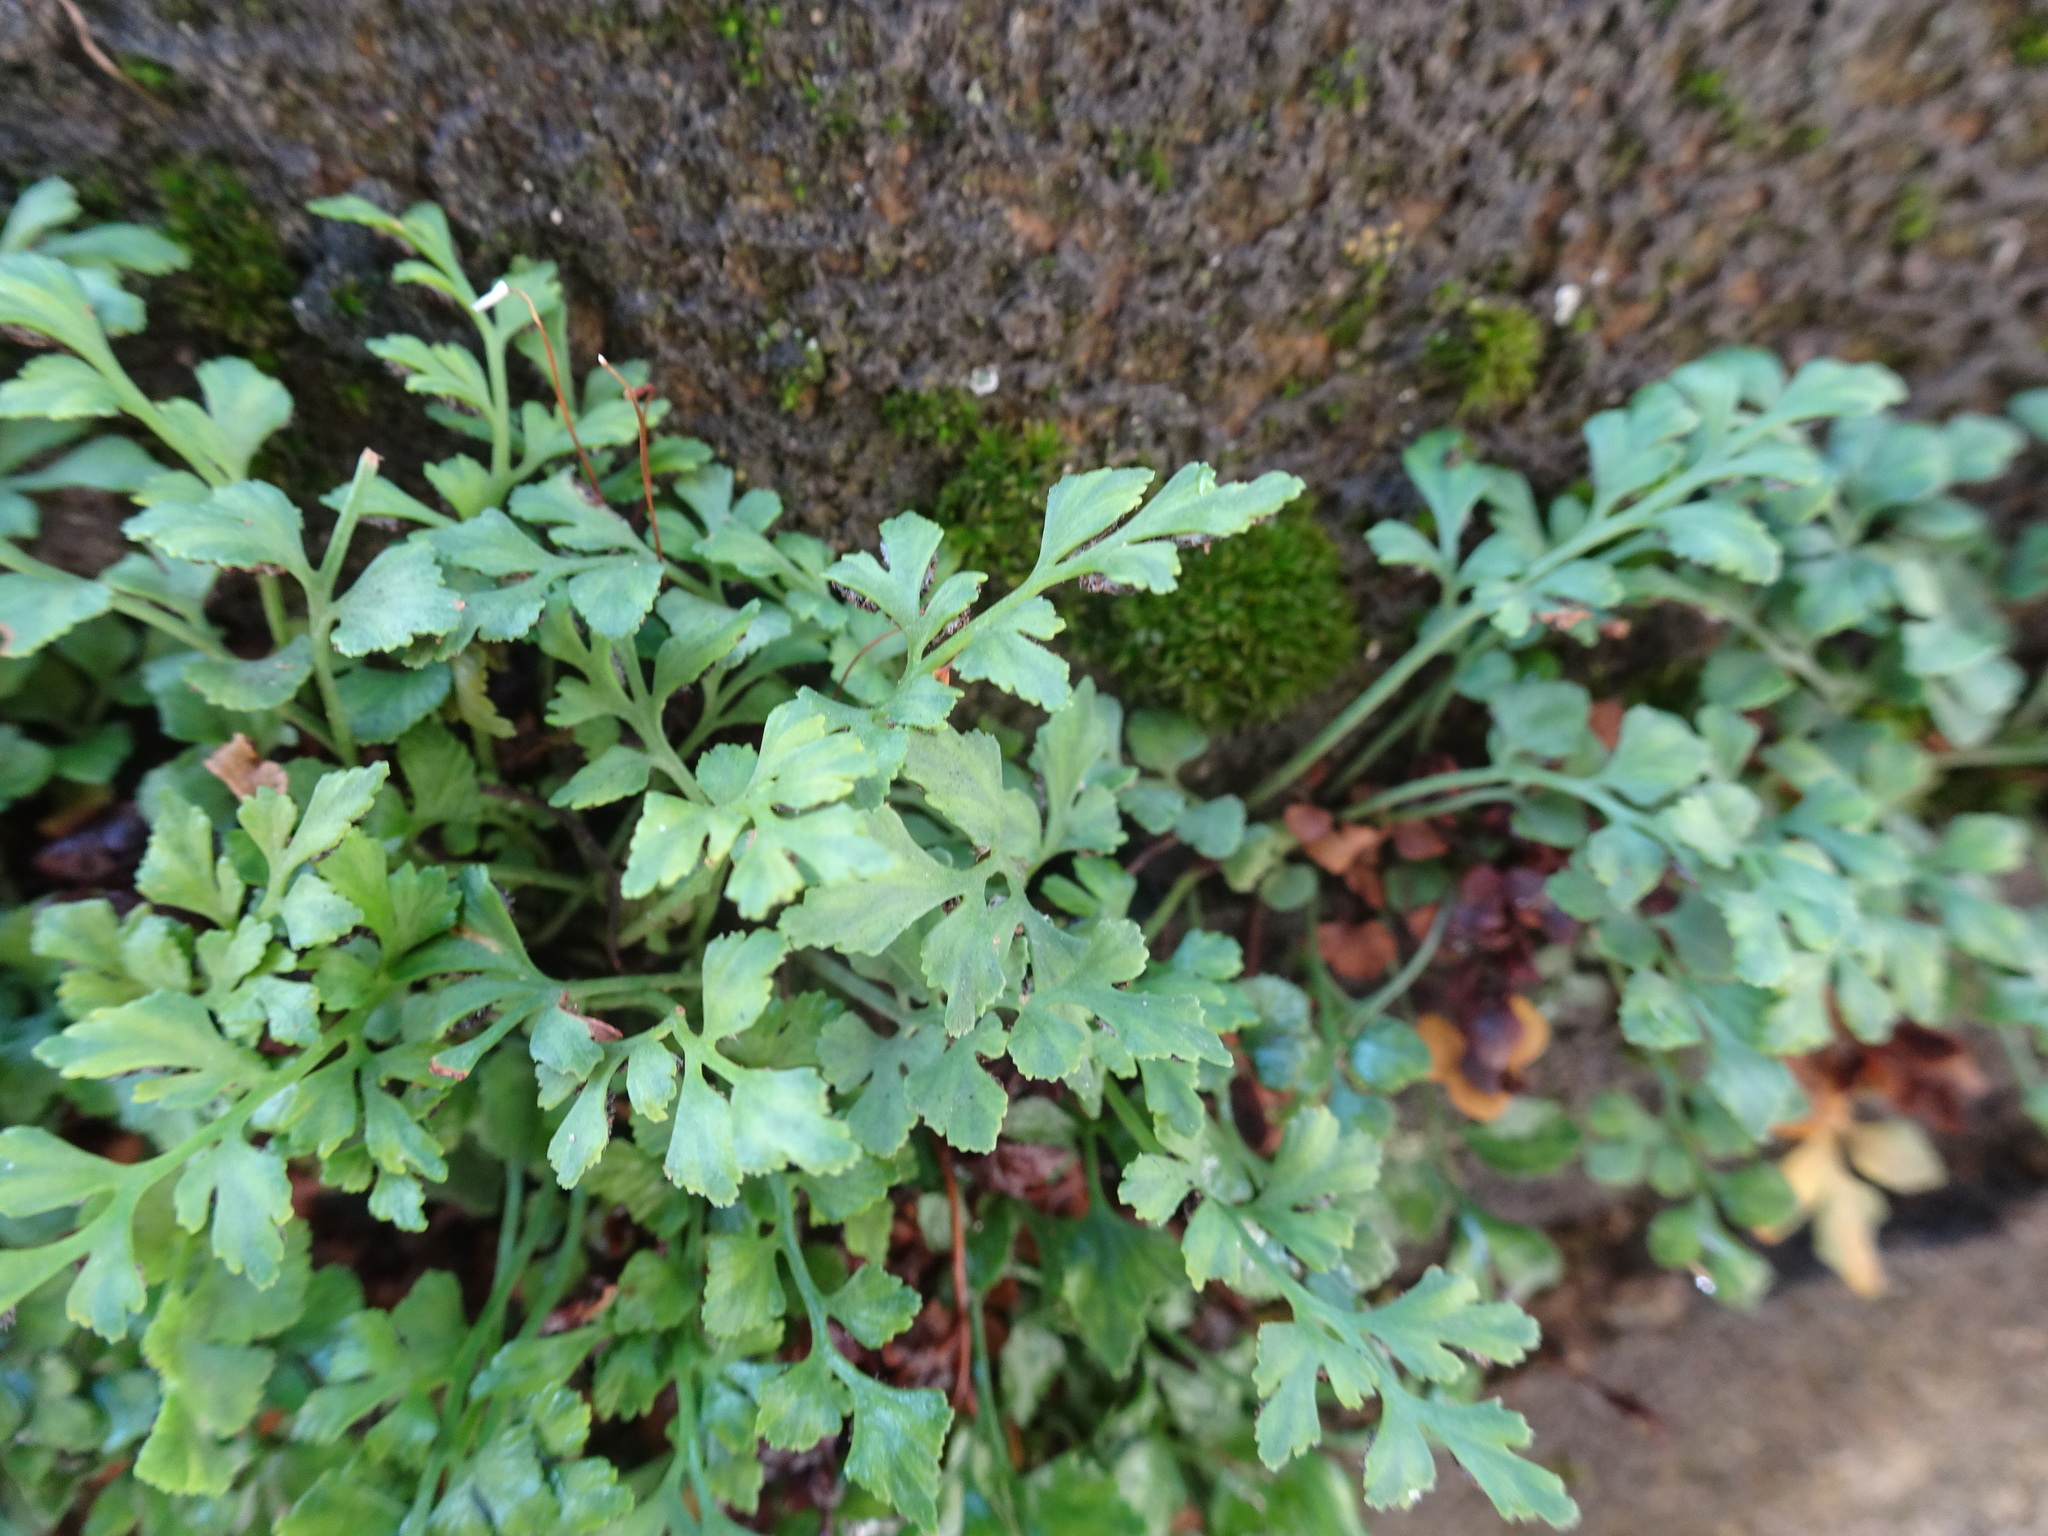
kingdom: Plantae
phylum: Tracheophyta
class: Polypodiopsida
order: Polypodiales
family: Aspleniaceae
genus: Asplenium
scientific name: Asplenium ruta-muraria
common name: Wall-rue
